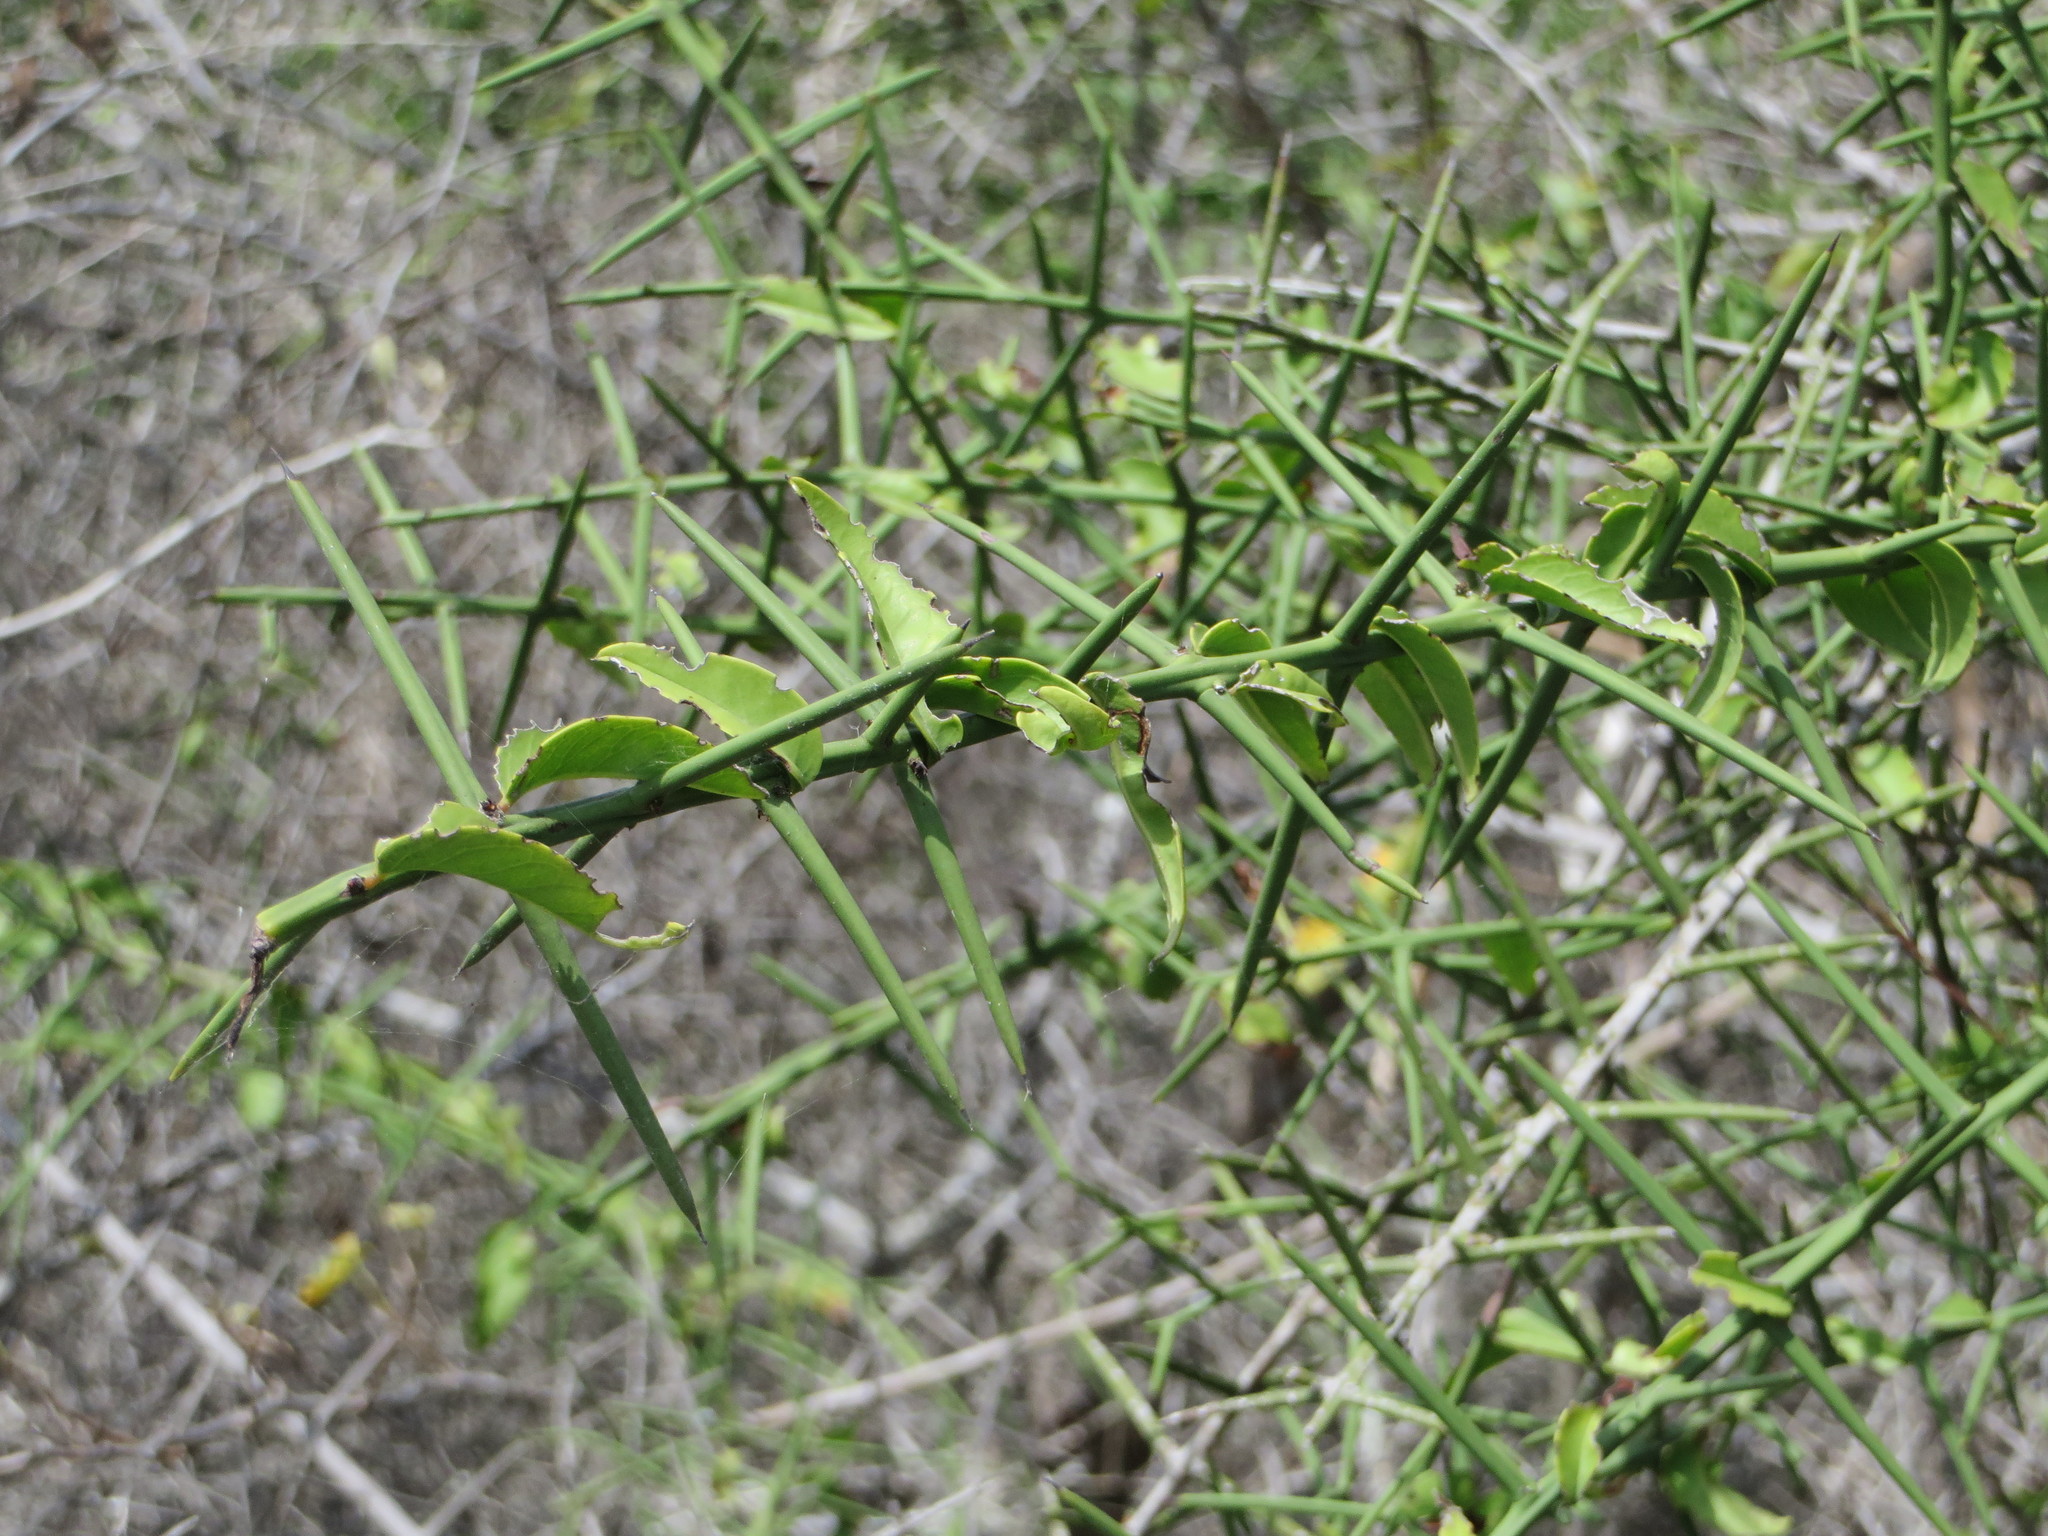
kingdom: Plantae
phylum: Tracheophyta
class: Magnoliopsida
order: Rosales
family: Rhamnaceae
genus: Scutia
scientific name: Scutia spicata
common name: Spiny bush
